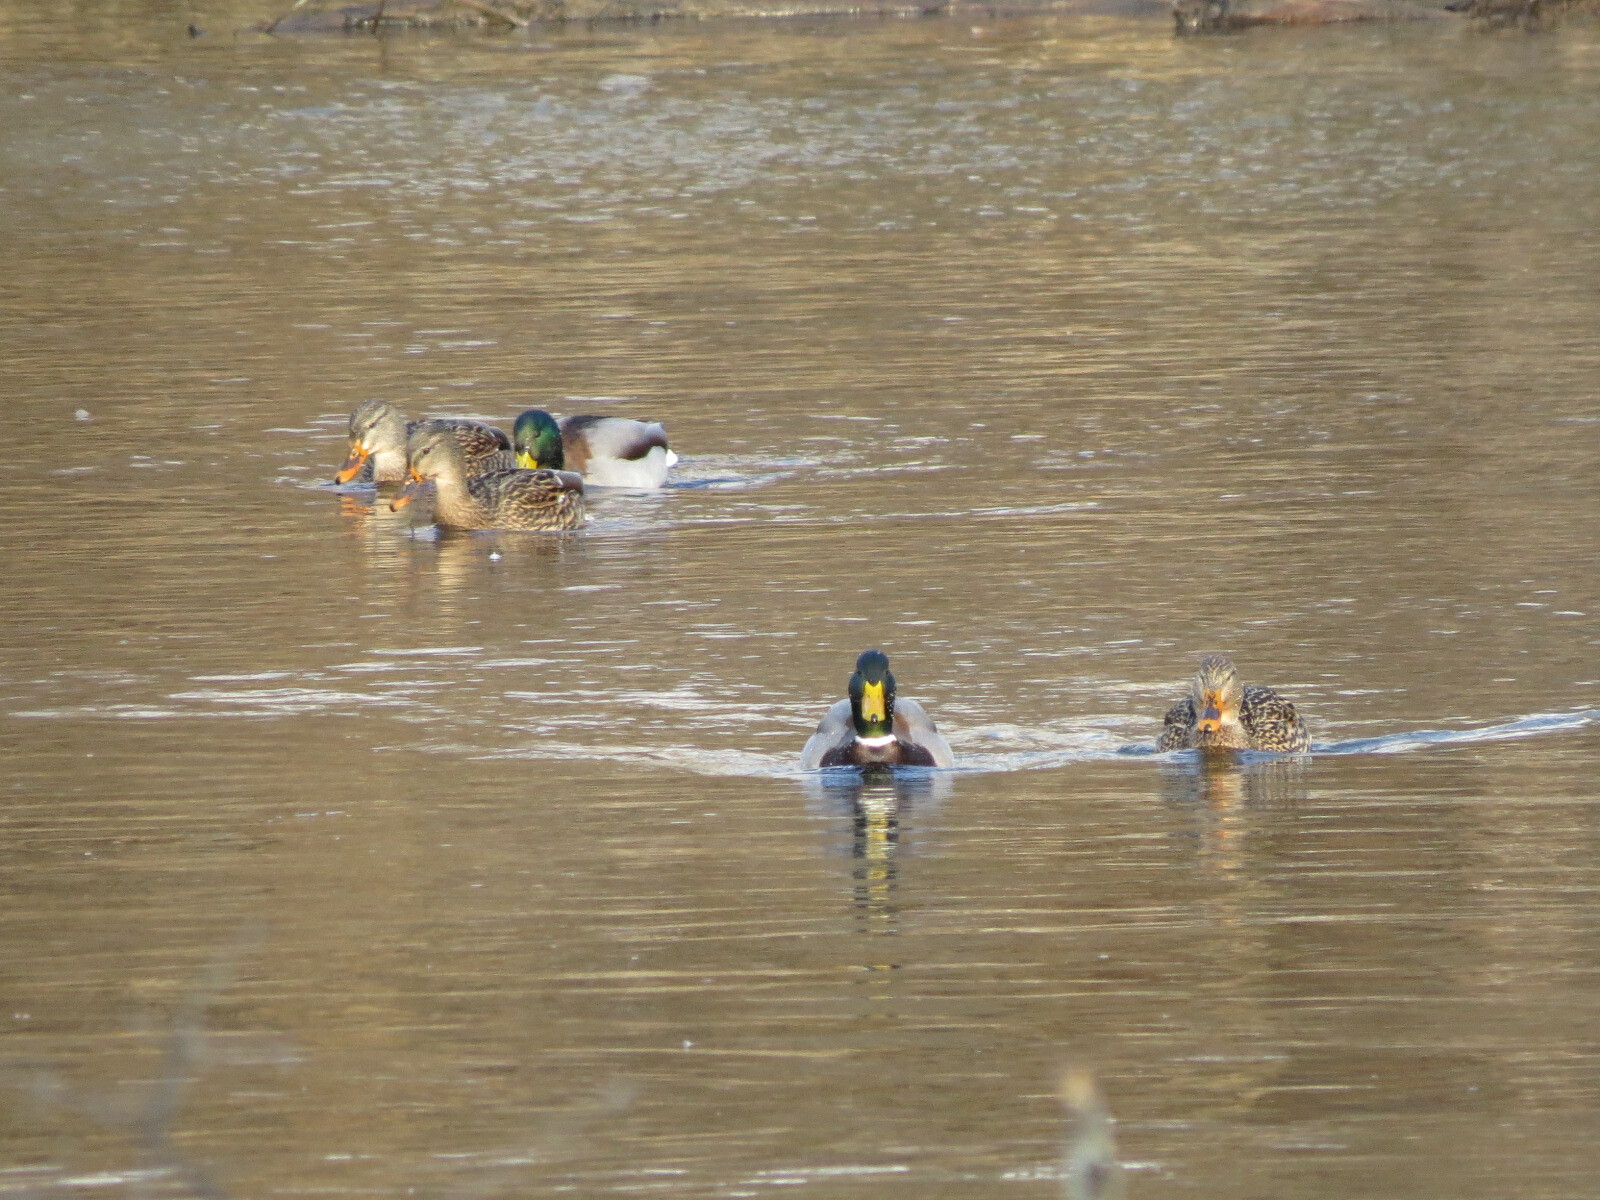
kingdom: Animalia
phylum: Chordata
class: Aves
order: Anseriformes
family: Anatidae
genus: Anas
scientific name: Anas platyrhynchos
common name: Mallard
